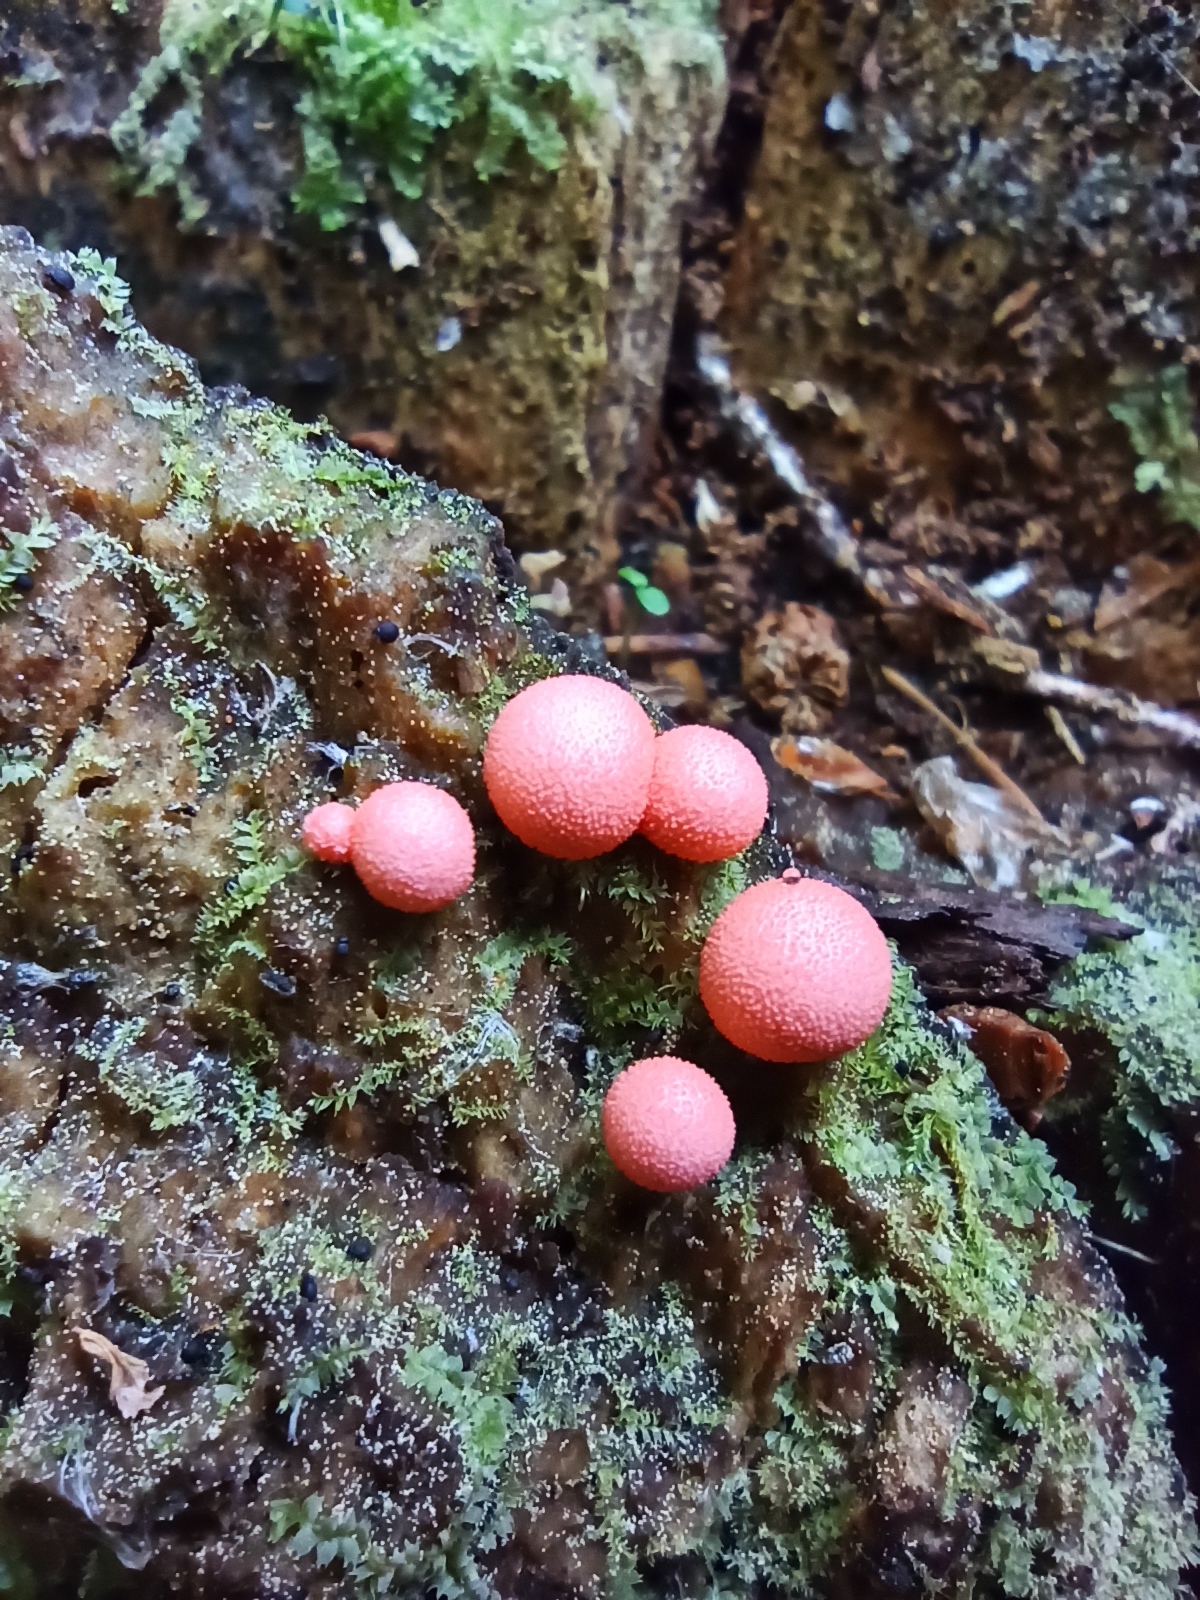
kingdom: Protozoa
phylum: Mycetozoa
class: Myxomycetes
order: Cribrariales
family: Tubiferaceae
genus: Lycogala
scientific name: Lycogala epidendrum
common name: Wolf's milk
